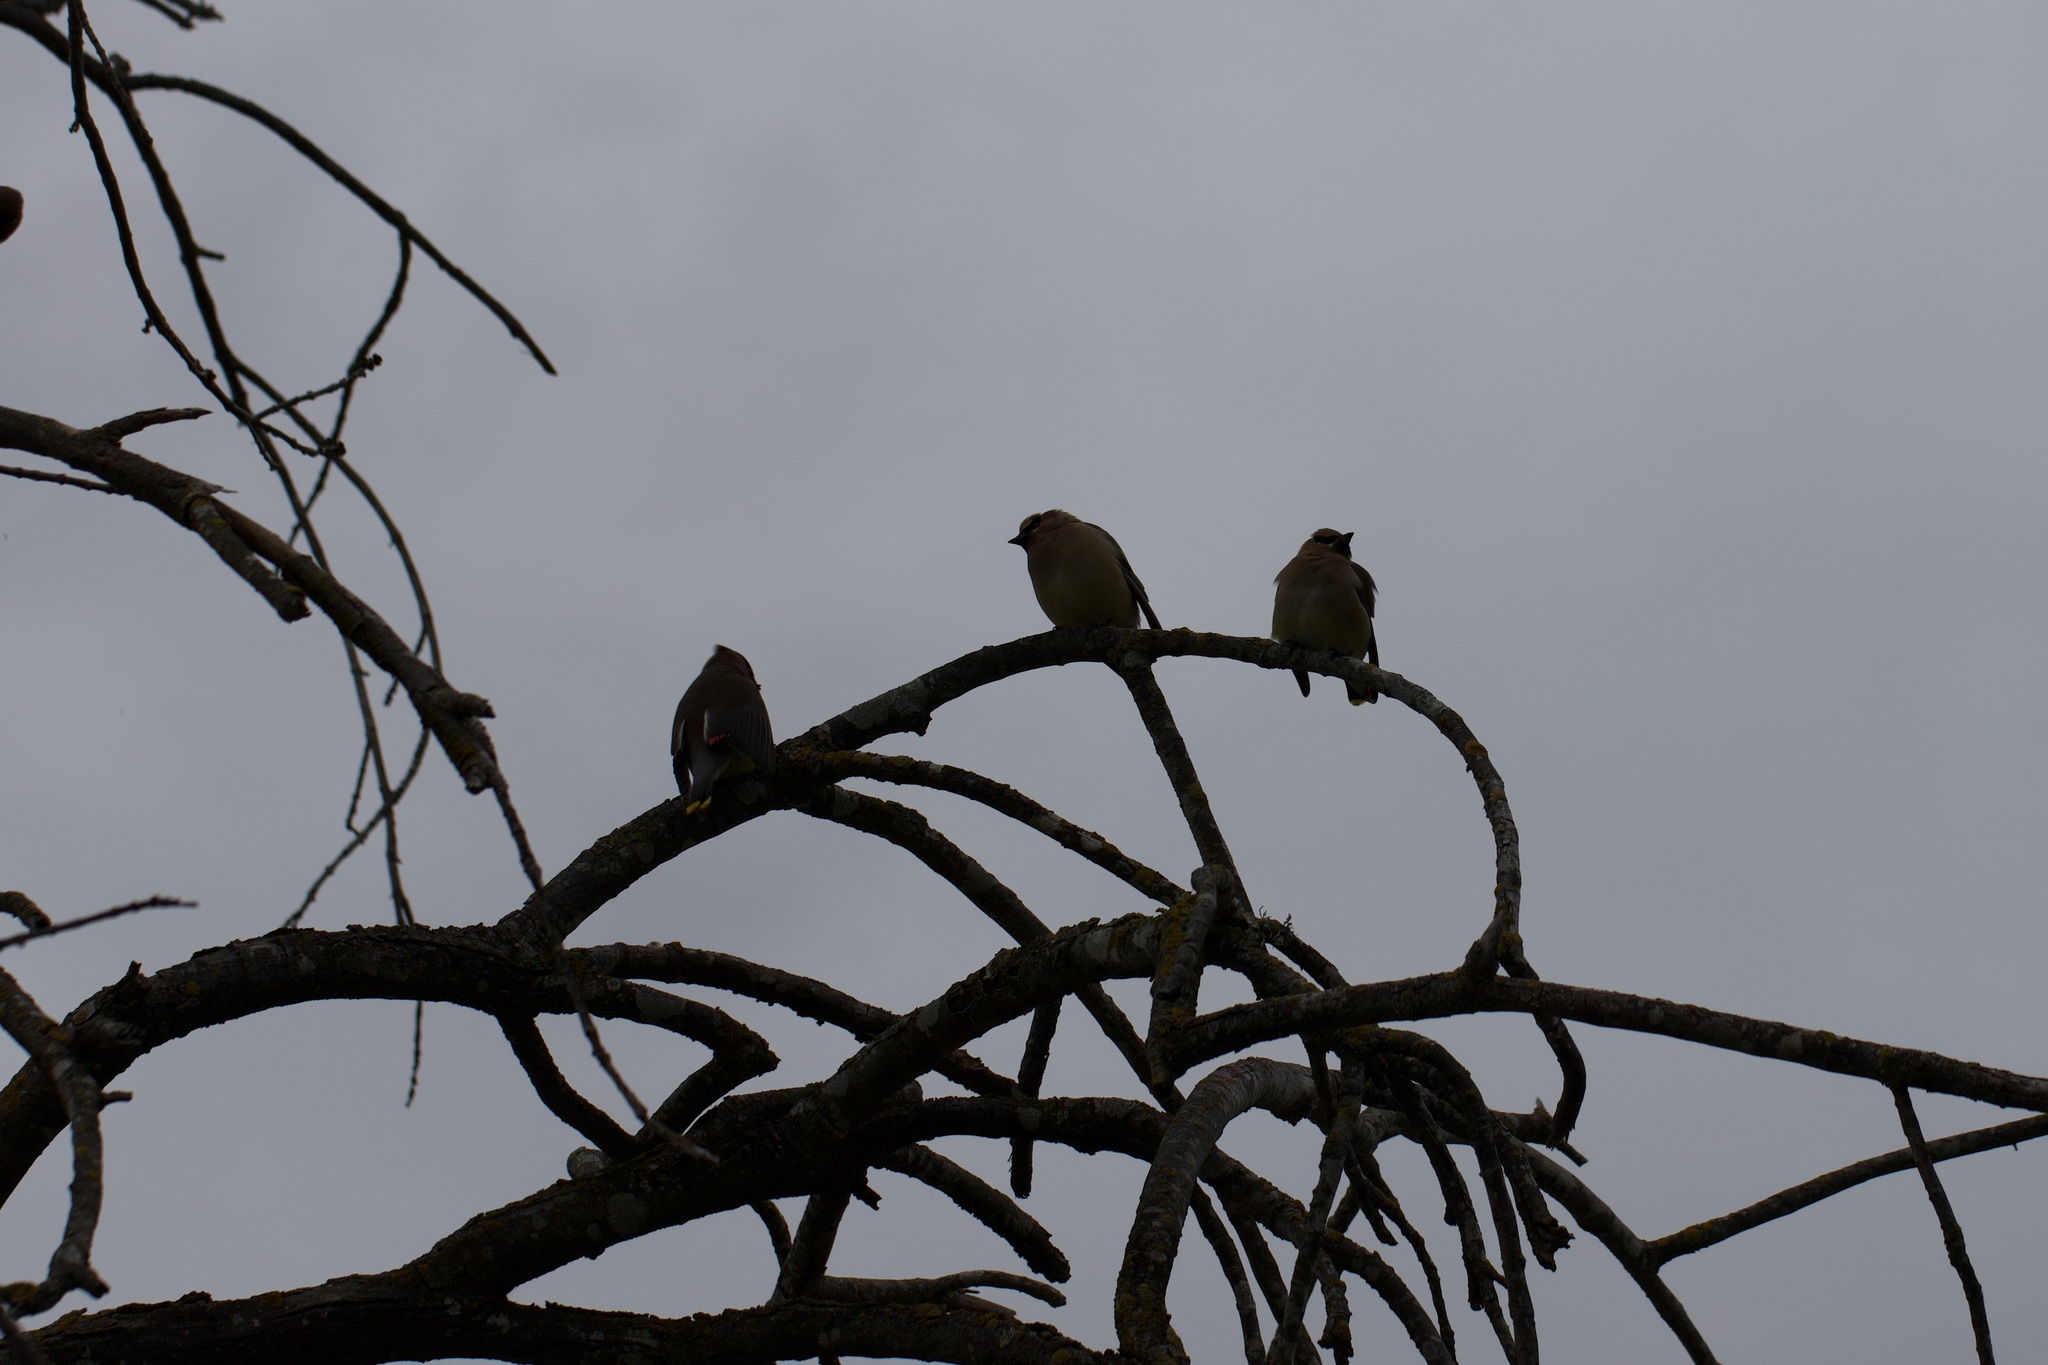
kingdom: Animalia
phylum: Chordata
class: Aves
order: Passeriformes
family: Bombycillidae
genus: Bombycilla
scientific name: Bombycilla cedrorum
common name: Cedar waxwing
